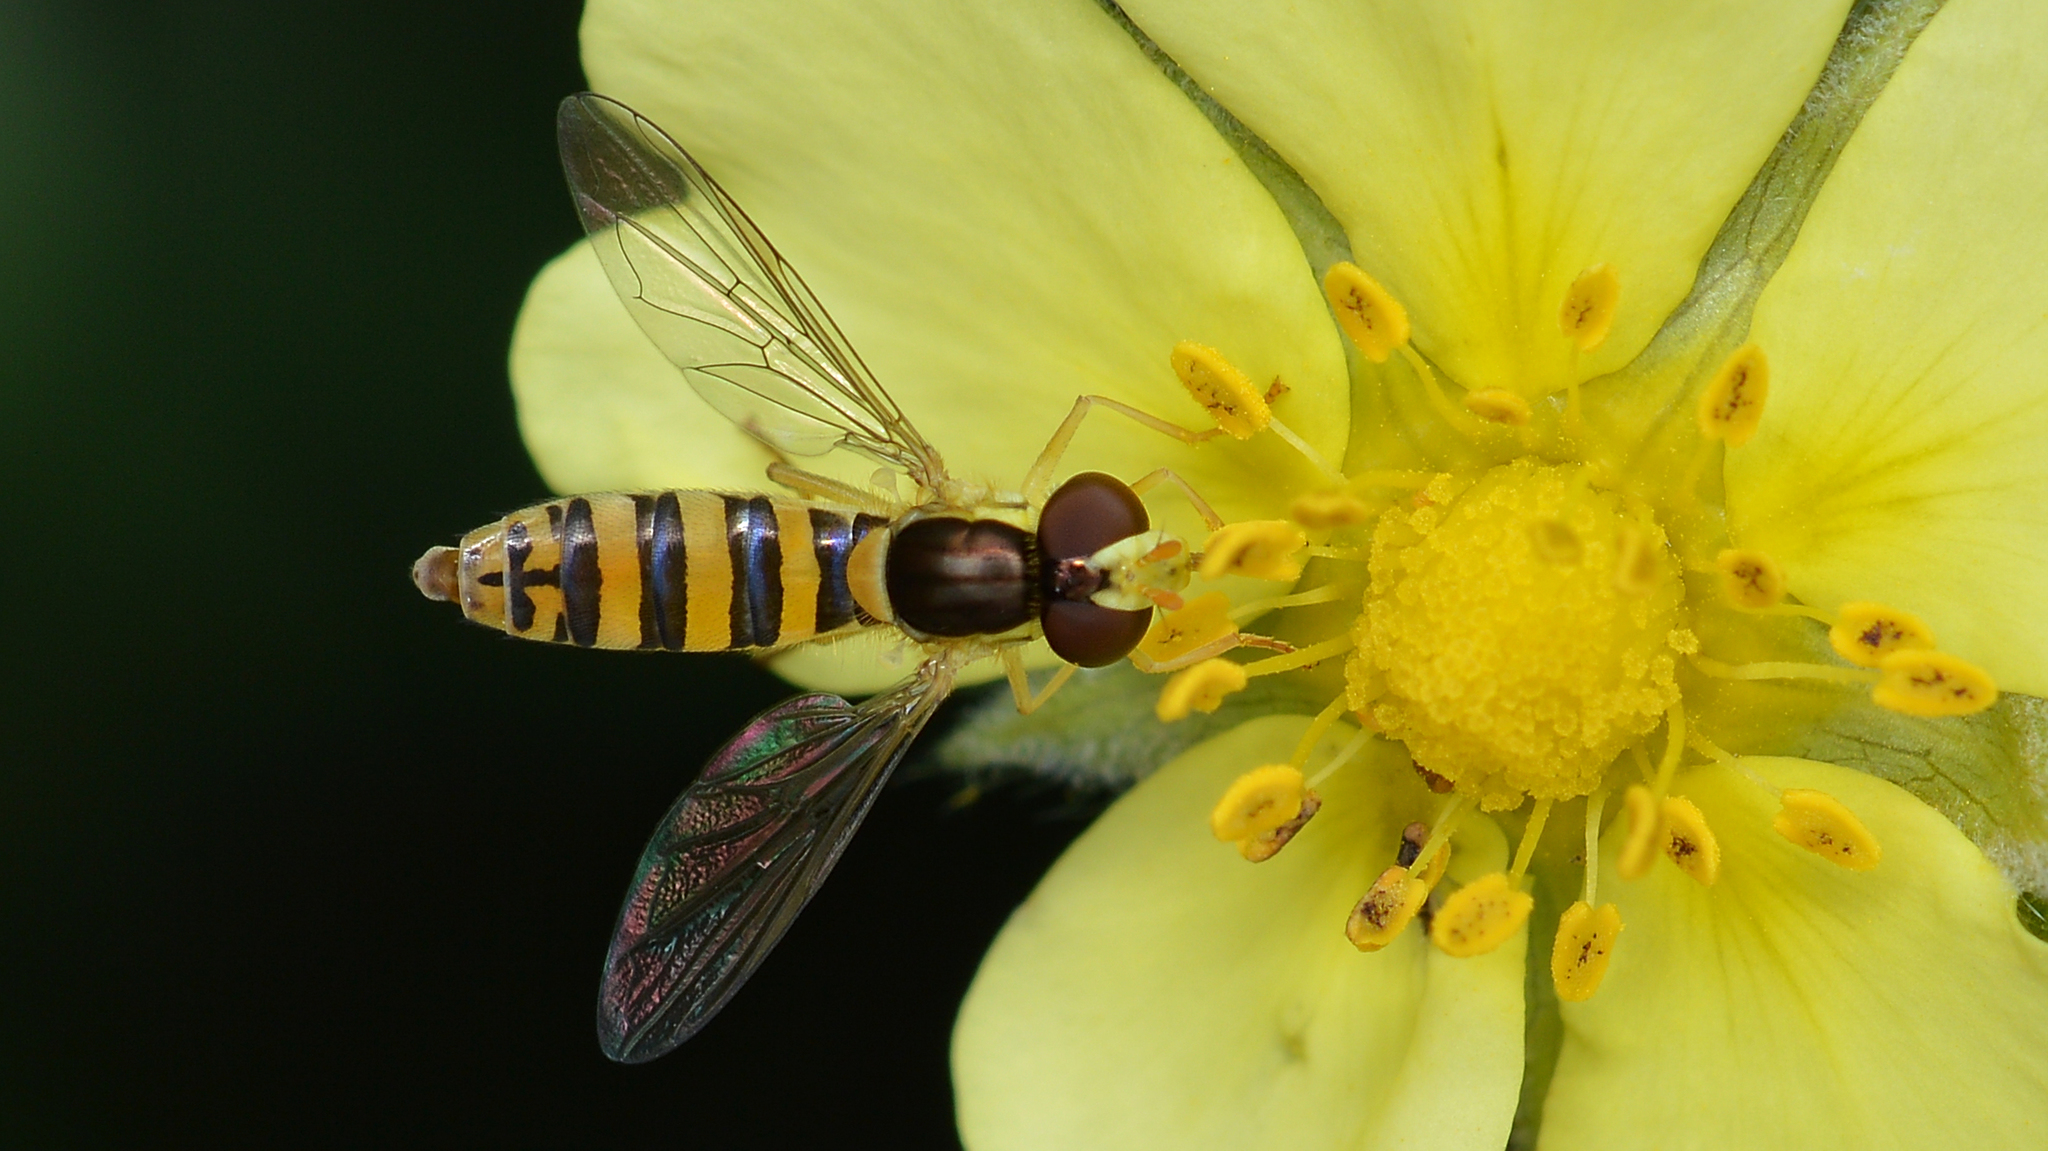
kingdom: Animalia
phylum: Arthropoda
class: Insecta
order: Diptera
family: Syrphidae
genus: Sphaerophoria
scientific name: Sphaerophoria
